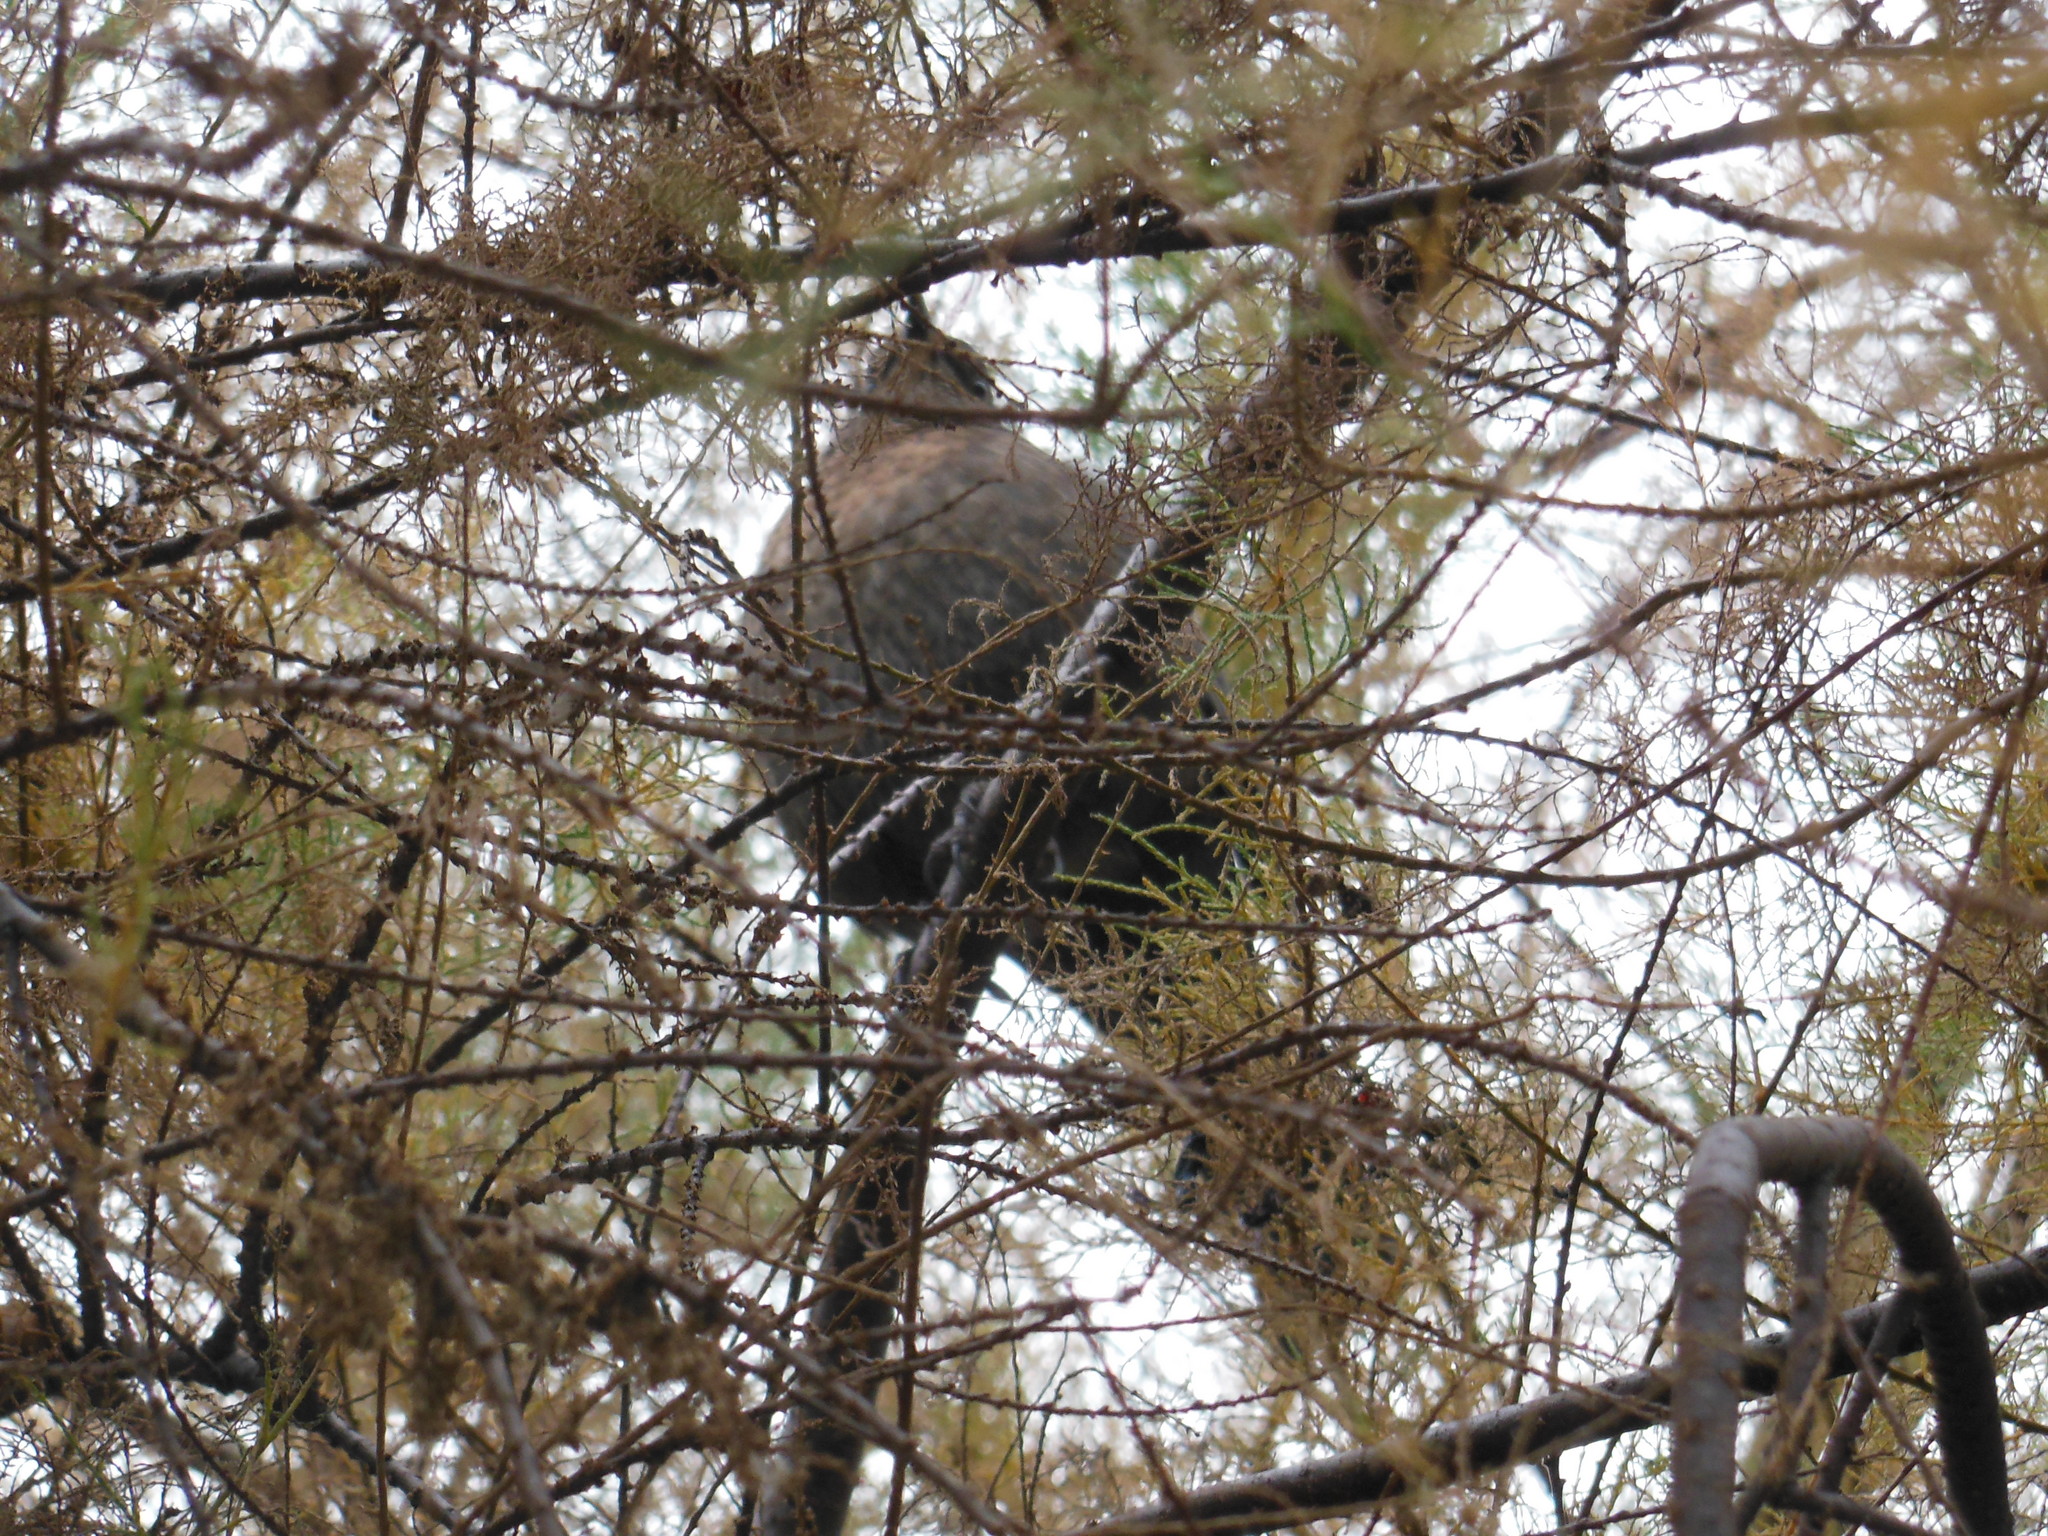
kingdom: Animalia
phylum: Chordata
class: Aves
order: Passeriformes
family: Turdidae
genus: Turdus
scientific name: Turdus merula
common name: Common blackbird
